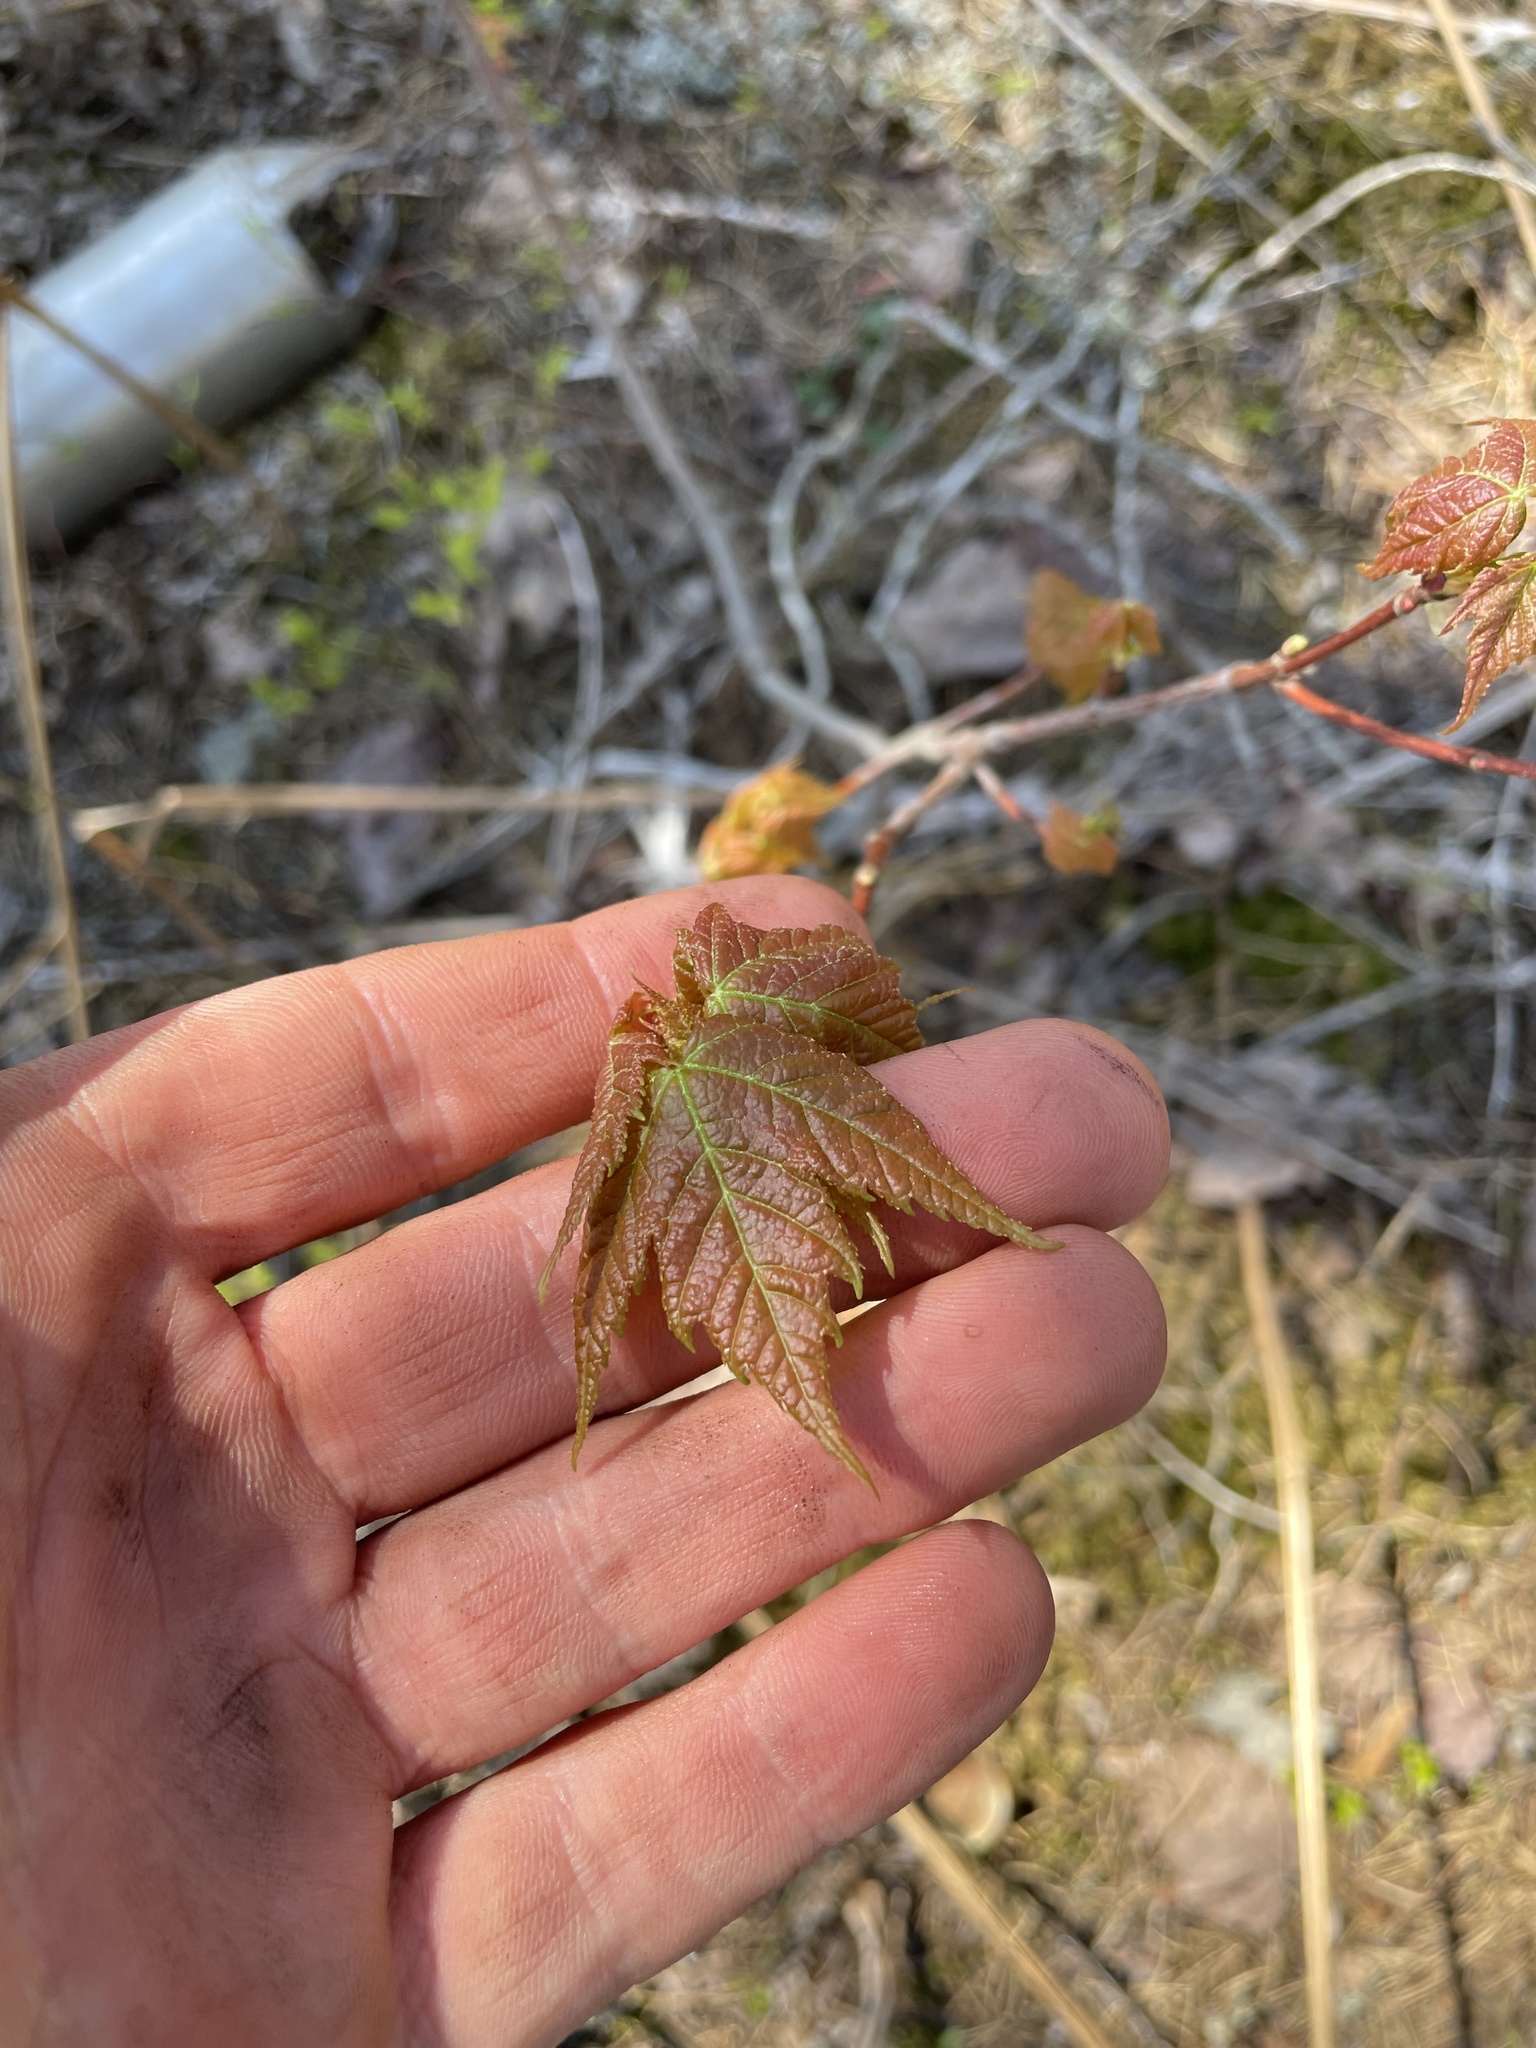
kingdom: Plantae
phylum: Tracheophyta
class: Magnoliopsida
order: Sapindales
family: Sapindaceae
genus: Acer
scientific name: Acer rubrum
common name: Red maple
